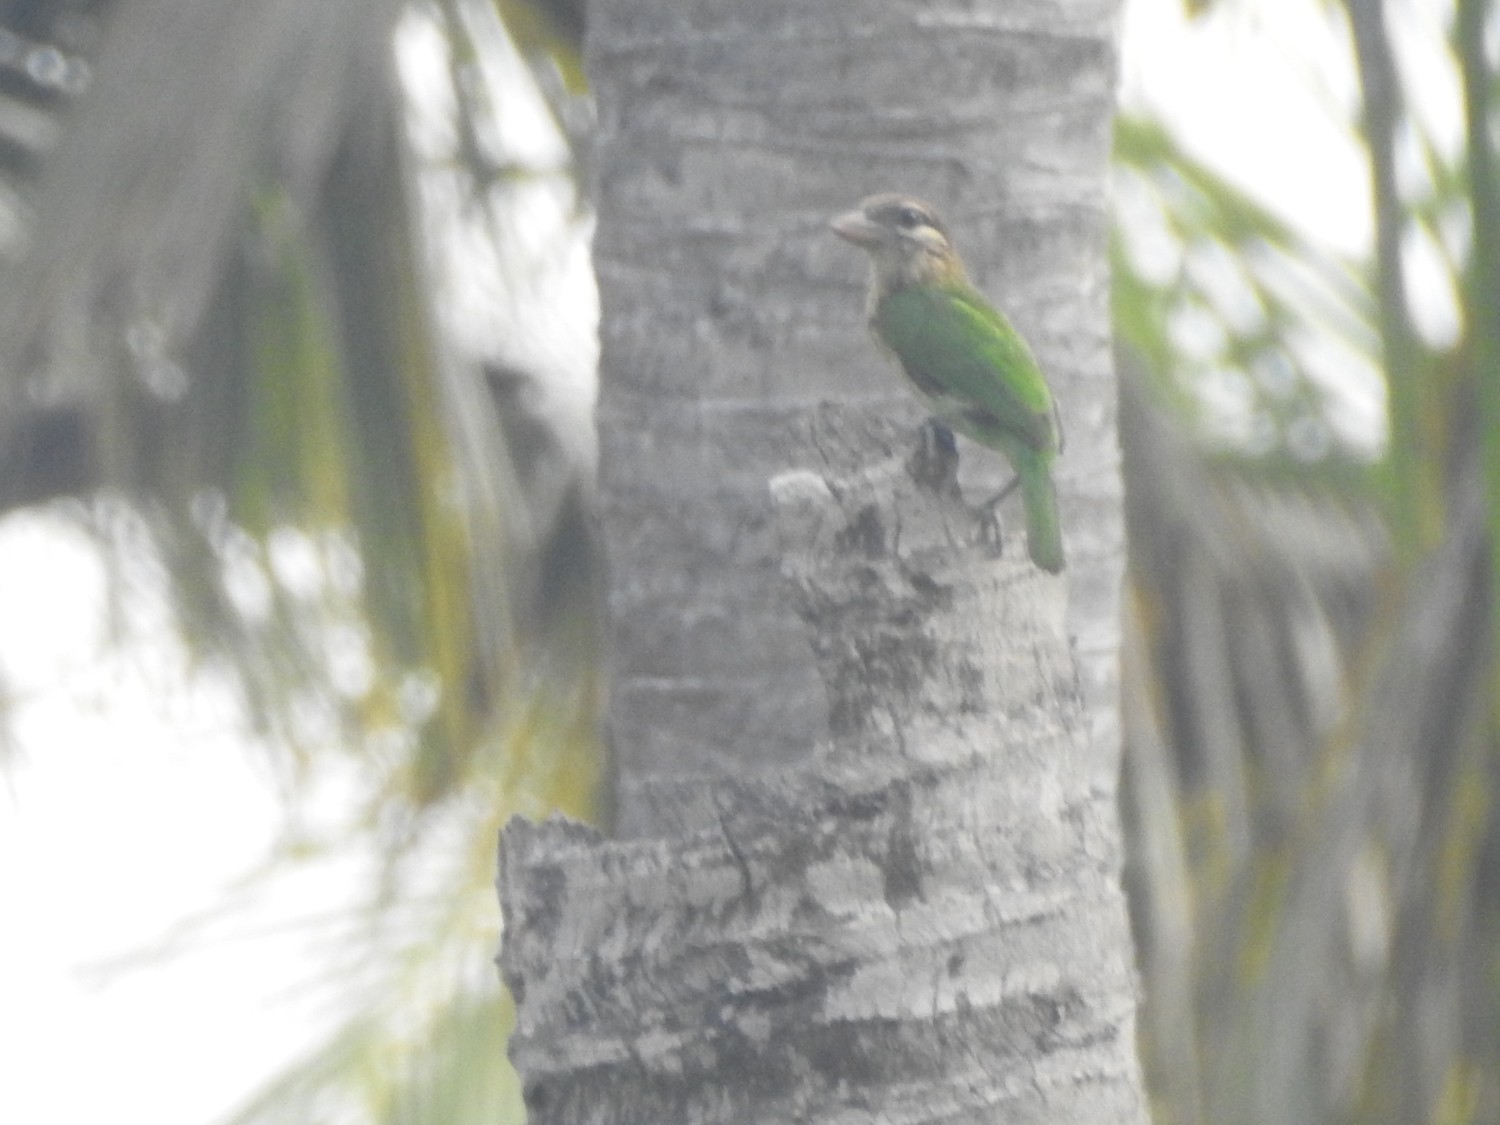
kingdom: Animalia
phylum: Chordata
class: Aves
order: Piciformes
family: Megalaimidae
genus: Psilopogon
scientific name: Psilopogon viridis
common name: White-cheeked barbet
